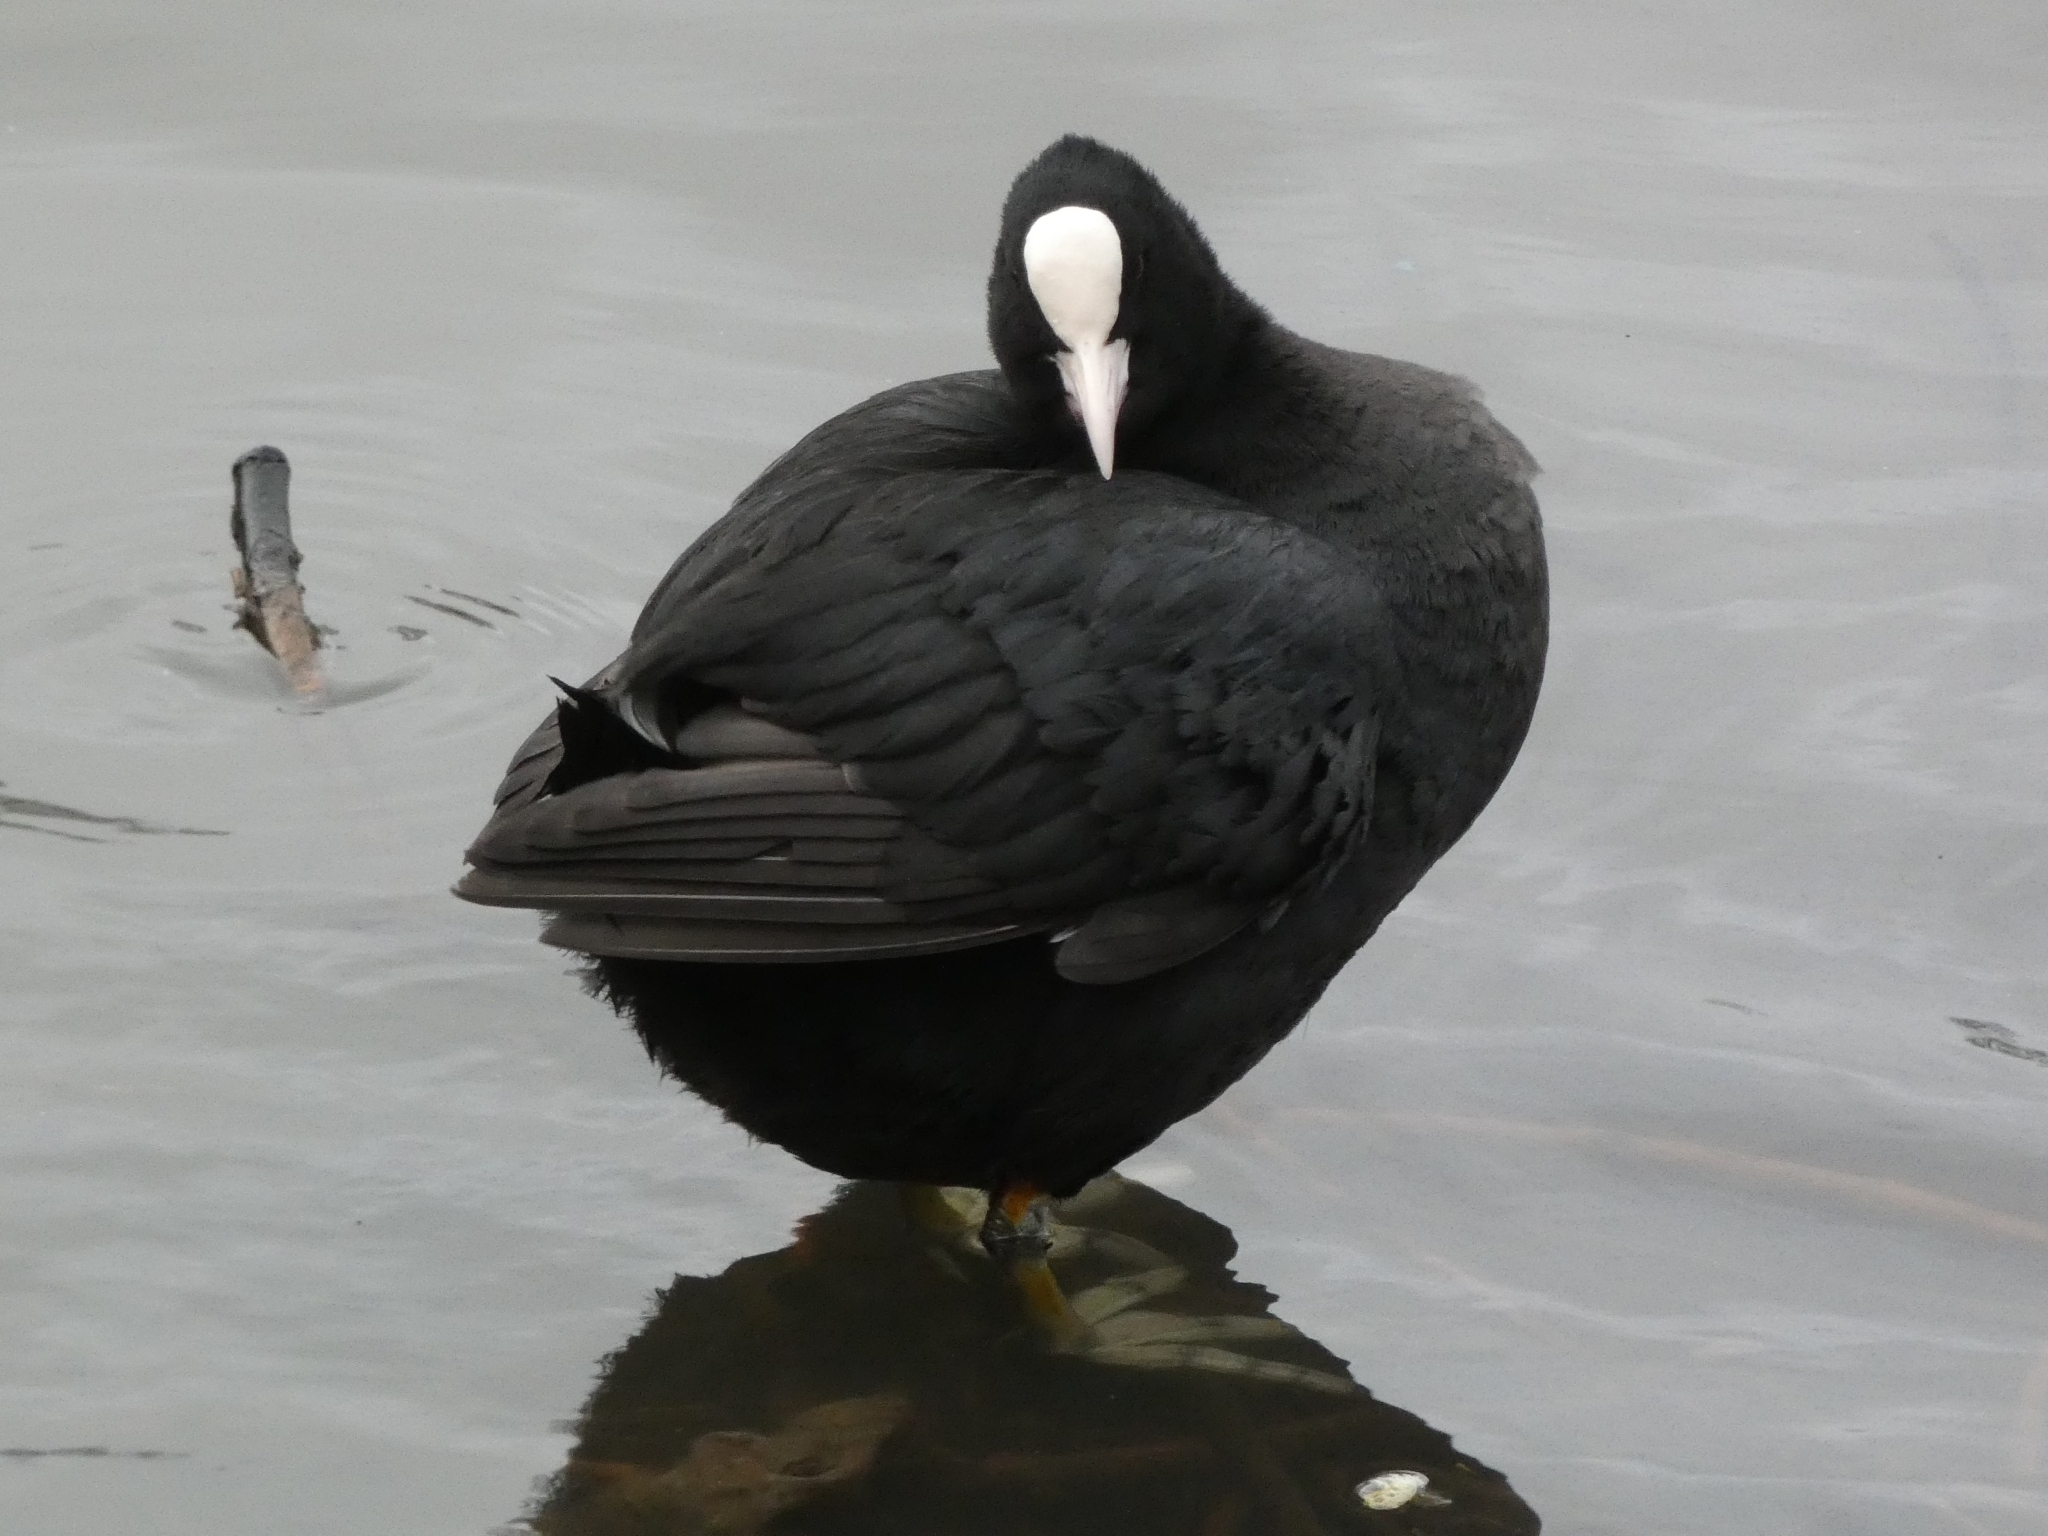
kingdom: Animalia
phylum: Chordata
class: Aves
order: Gruiformes
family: Rallidae
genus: Fulica
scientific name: Fulica atra
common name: Eurasian coot
